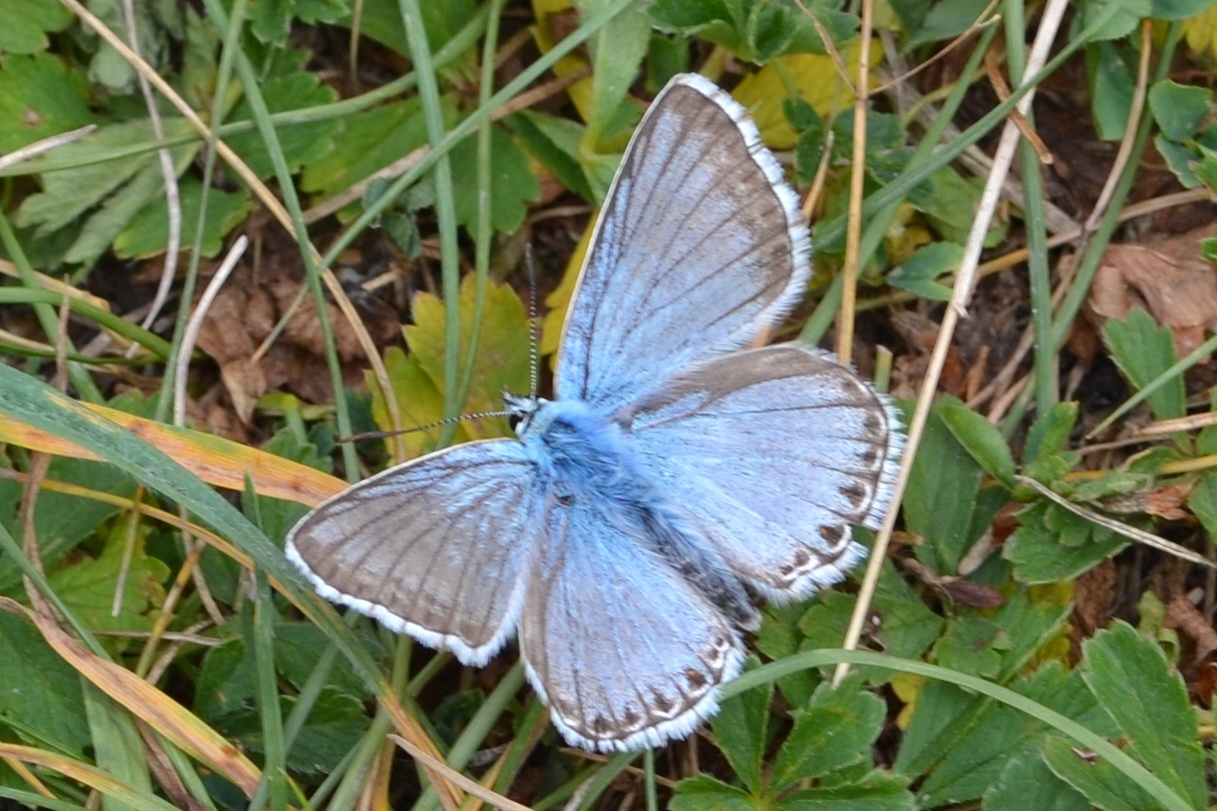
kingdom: Animalia
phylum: Arthropoda
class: Insecta
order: Lepidoptera
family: Lycaenidae
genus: Lysandra
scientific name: Lysandra coridon
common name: Chalkhill blue
